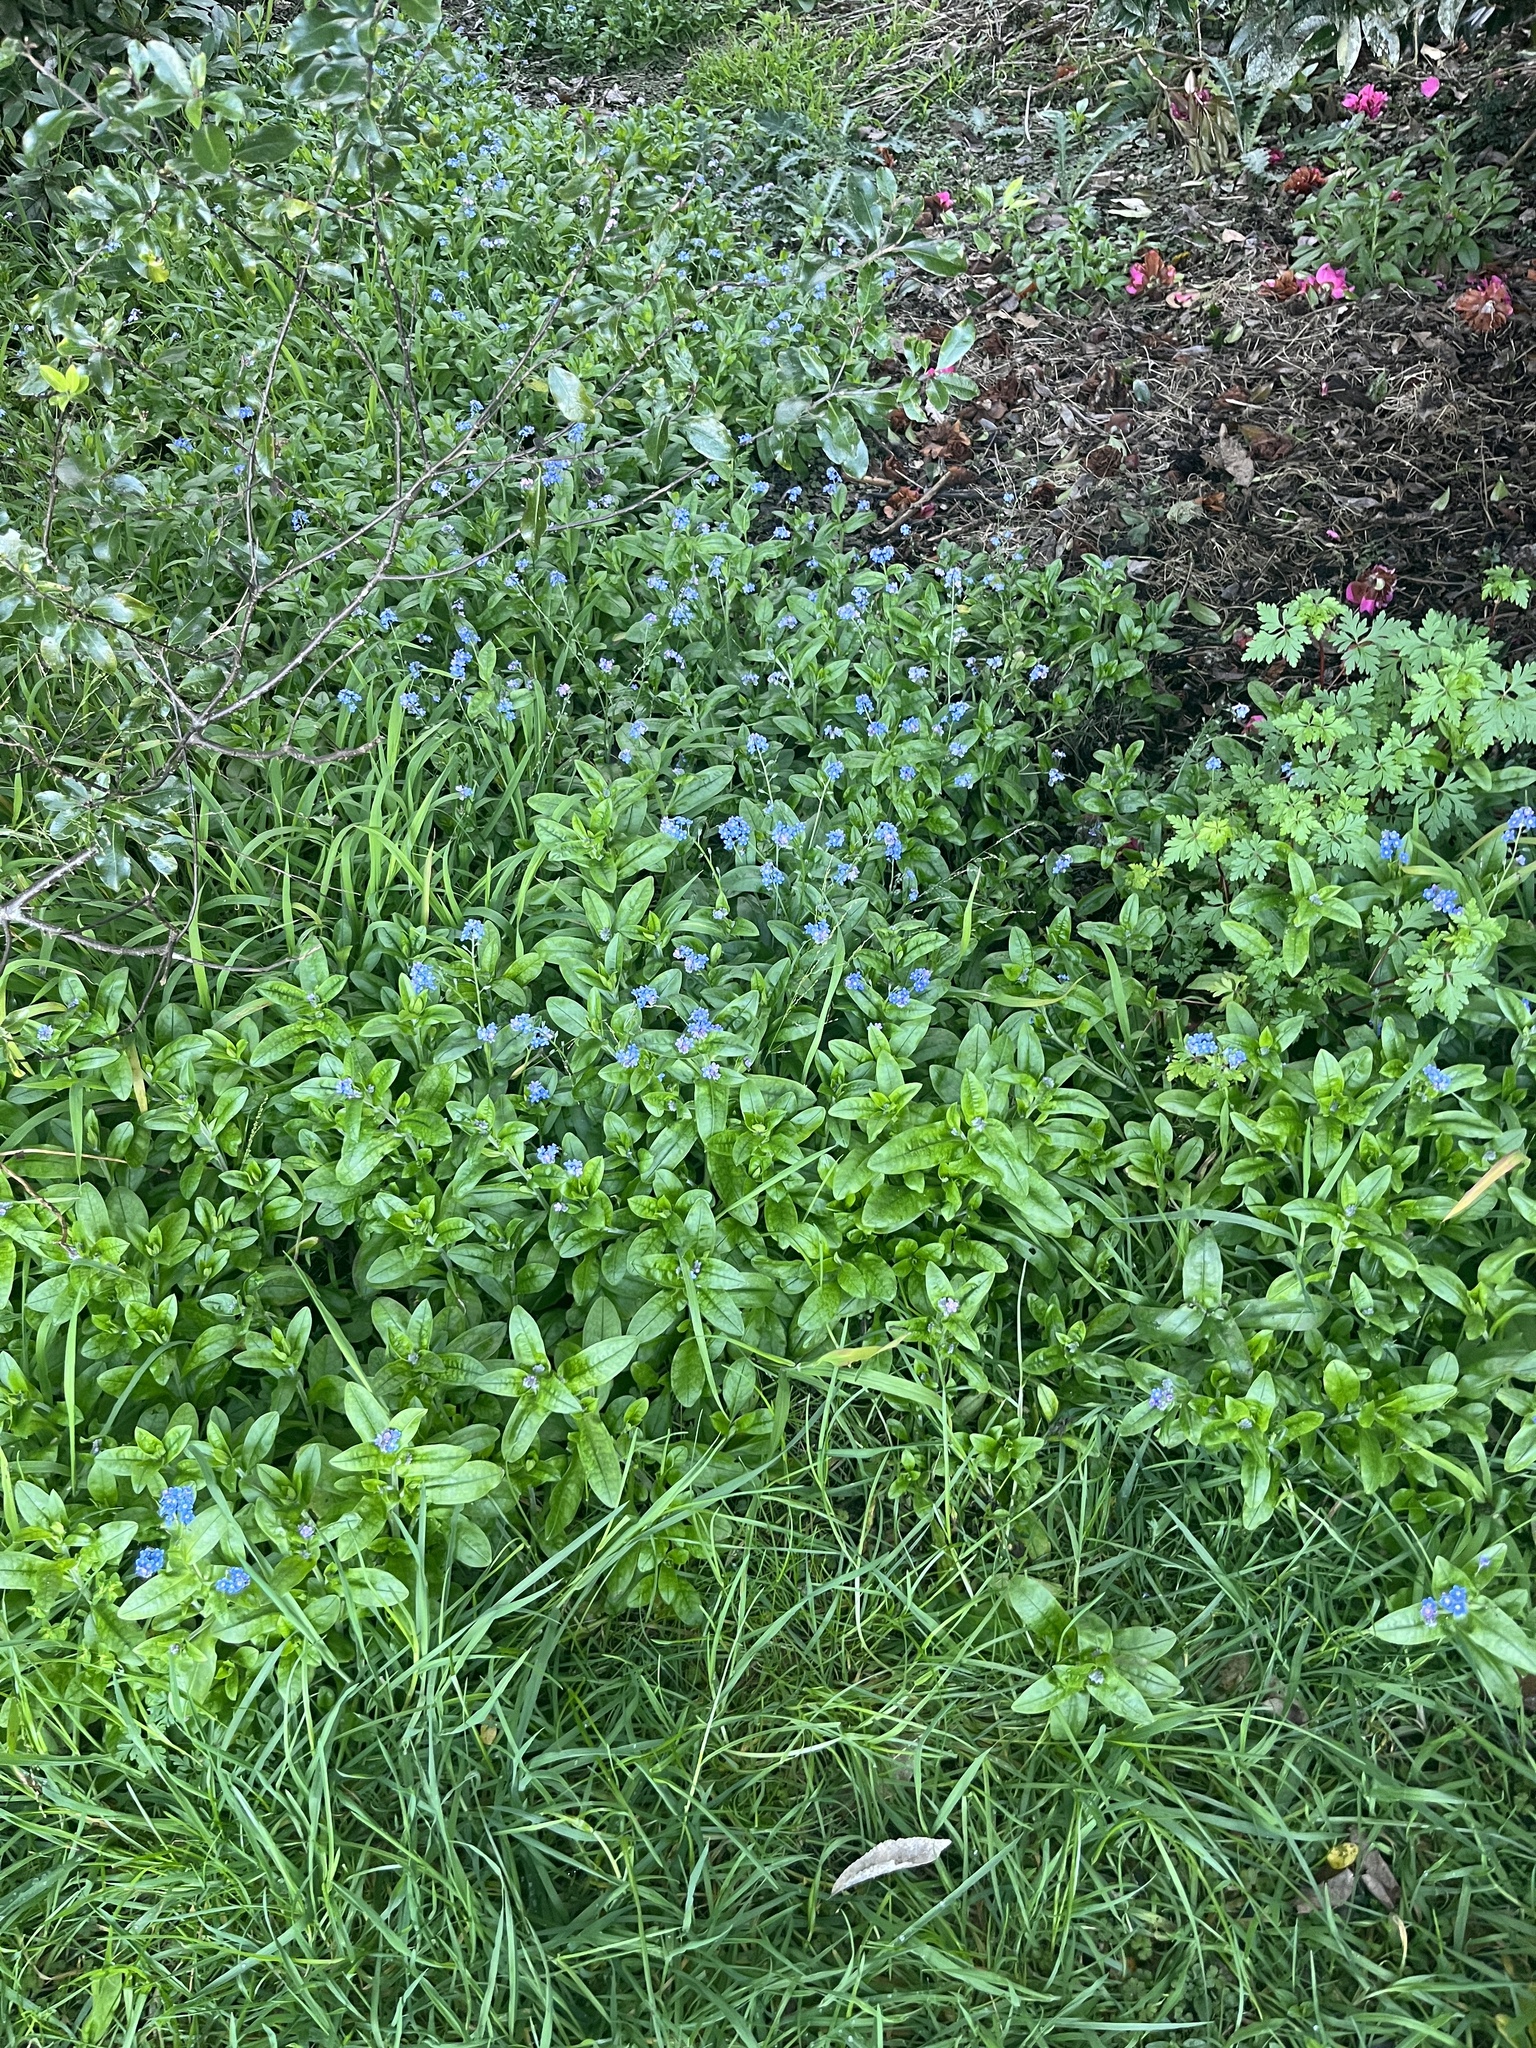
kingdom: Plantae
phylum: Tracheophyta
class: Magnoliopsida
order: Boraginales
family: Boraginaceae
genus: Myosotis
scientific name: Myosotis sylvatica
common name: Wood forget-me-not
